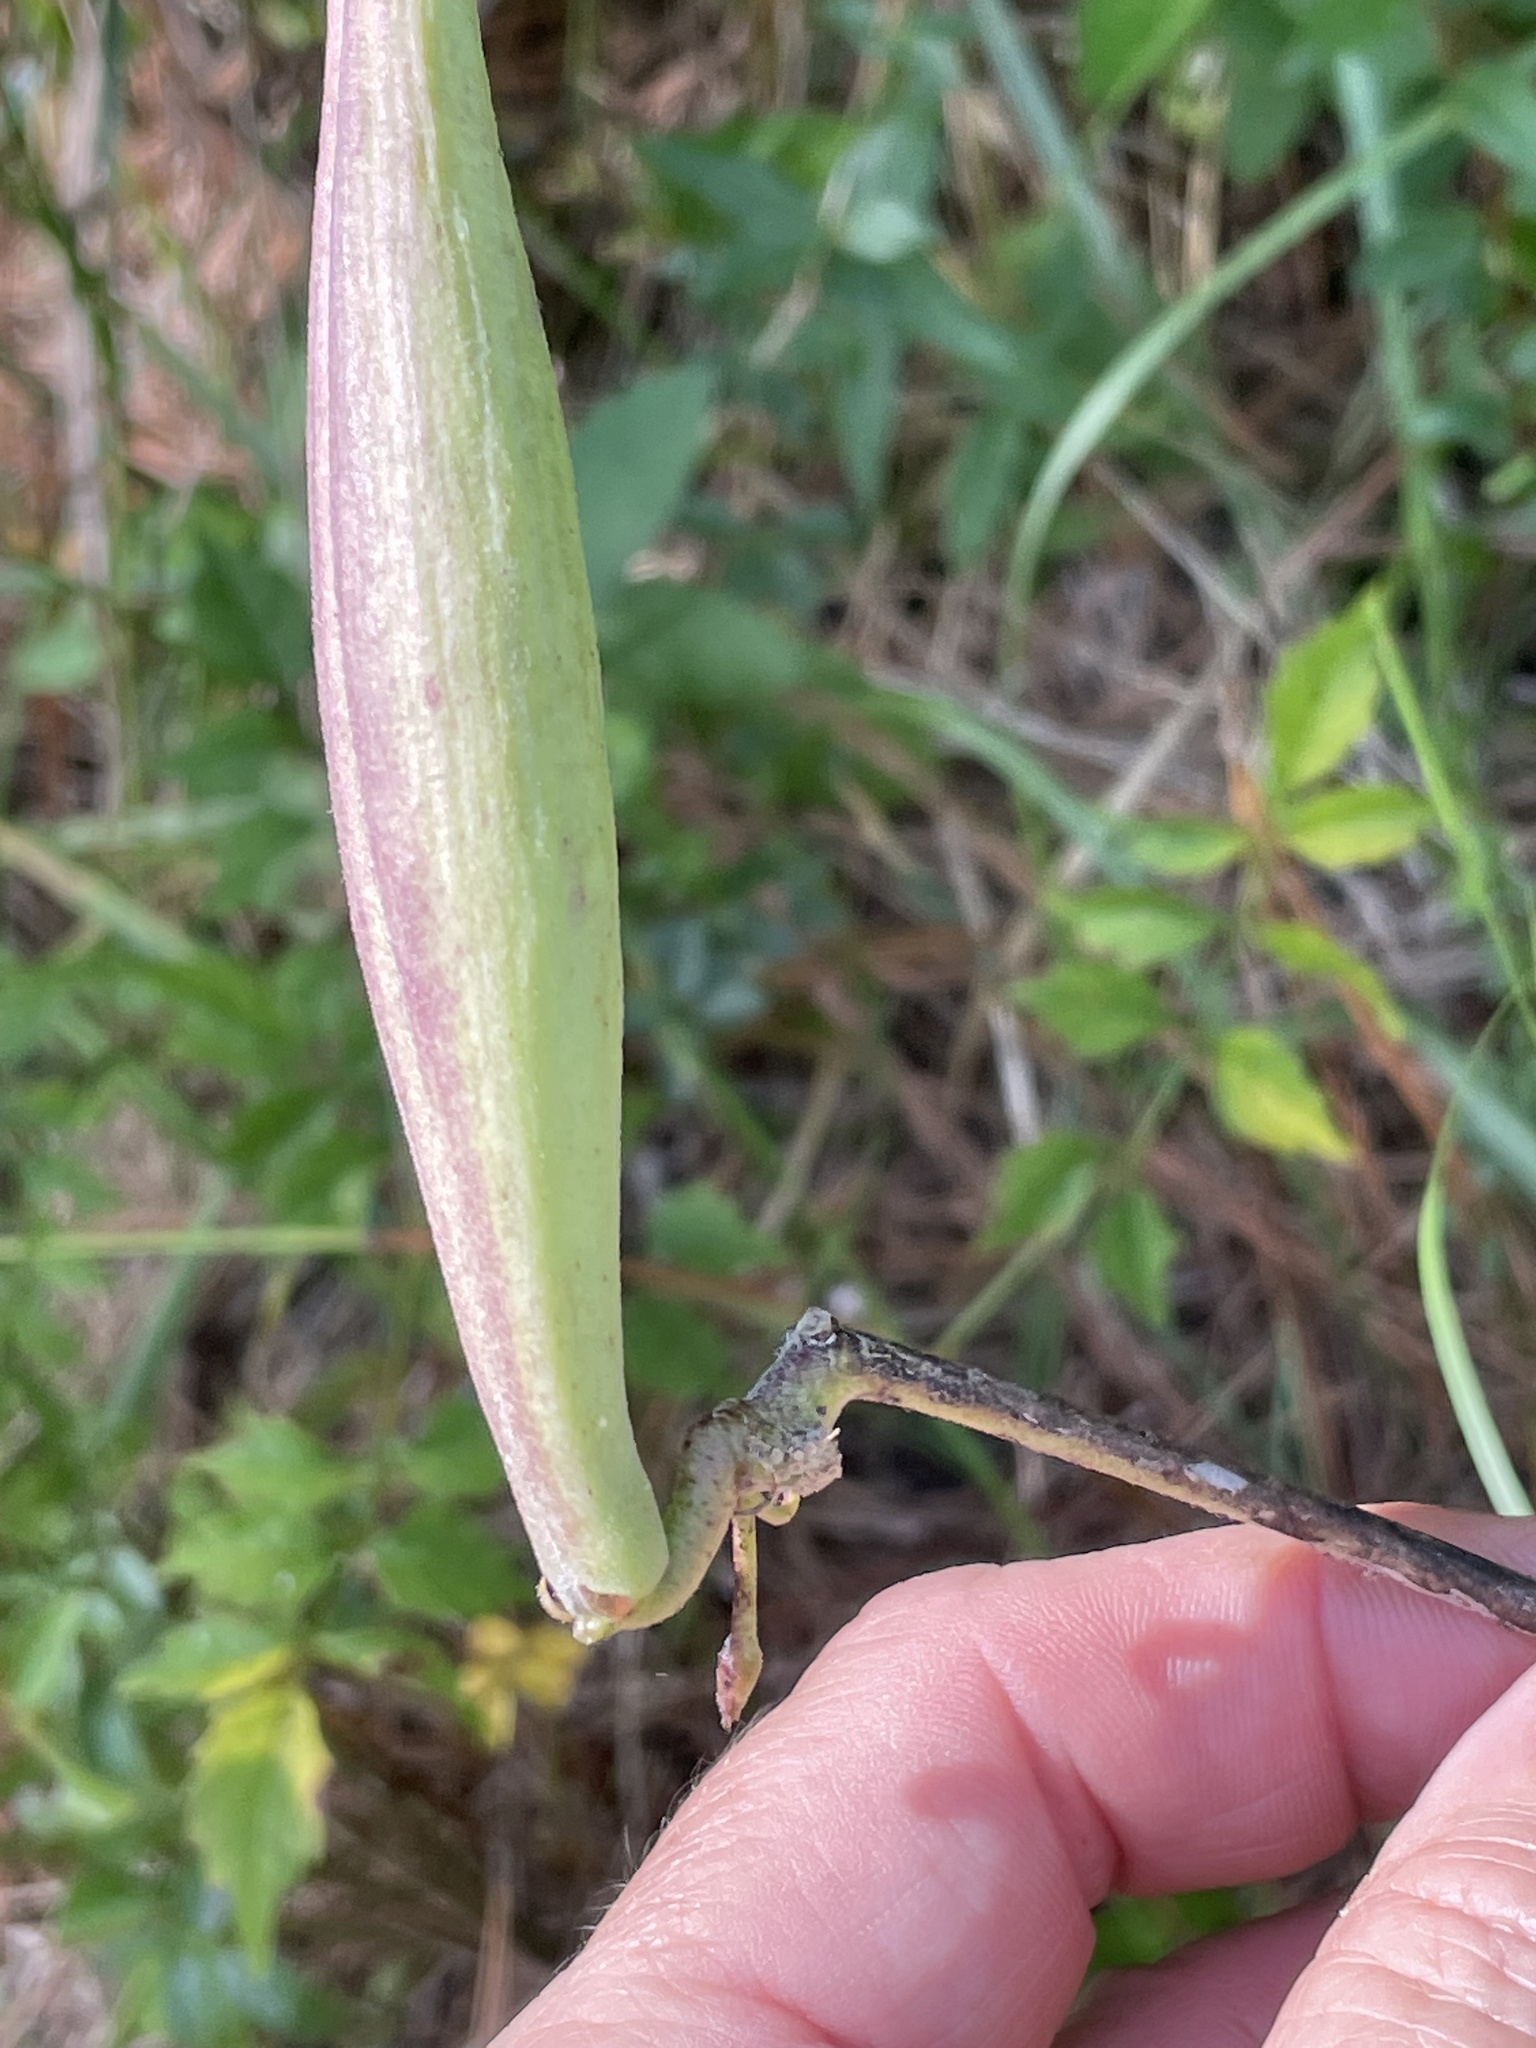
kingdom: Plantae
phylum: Tracheophyta
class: Magnoliopsida
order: Gentianales
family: Apocynaceae
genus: Asclepias
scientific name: Asclepias viridiflora
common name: Green comet milkweed
